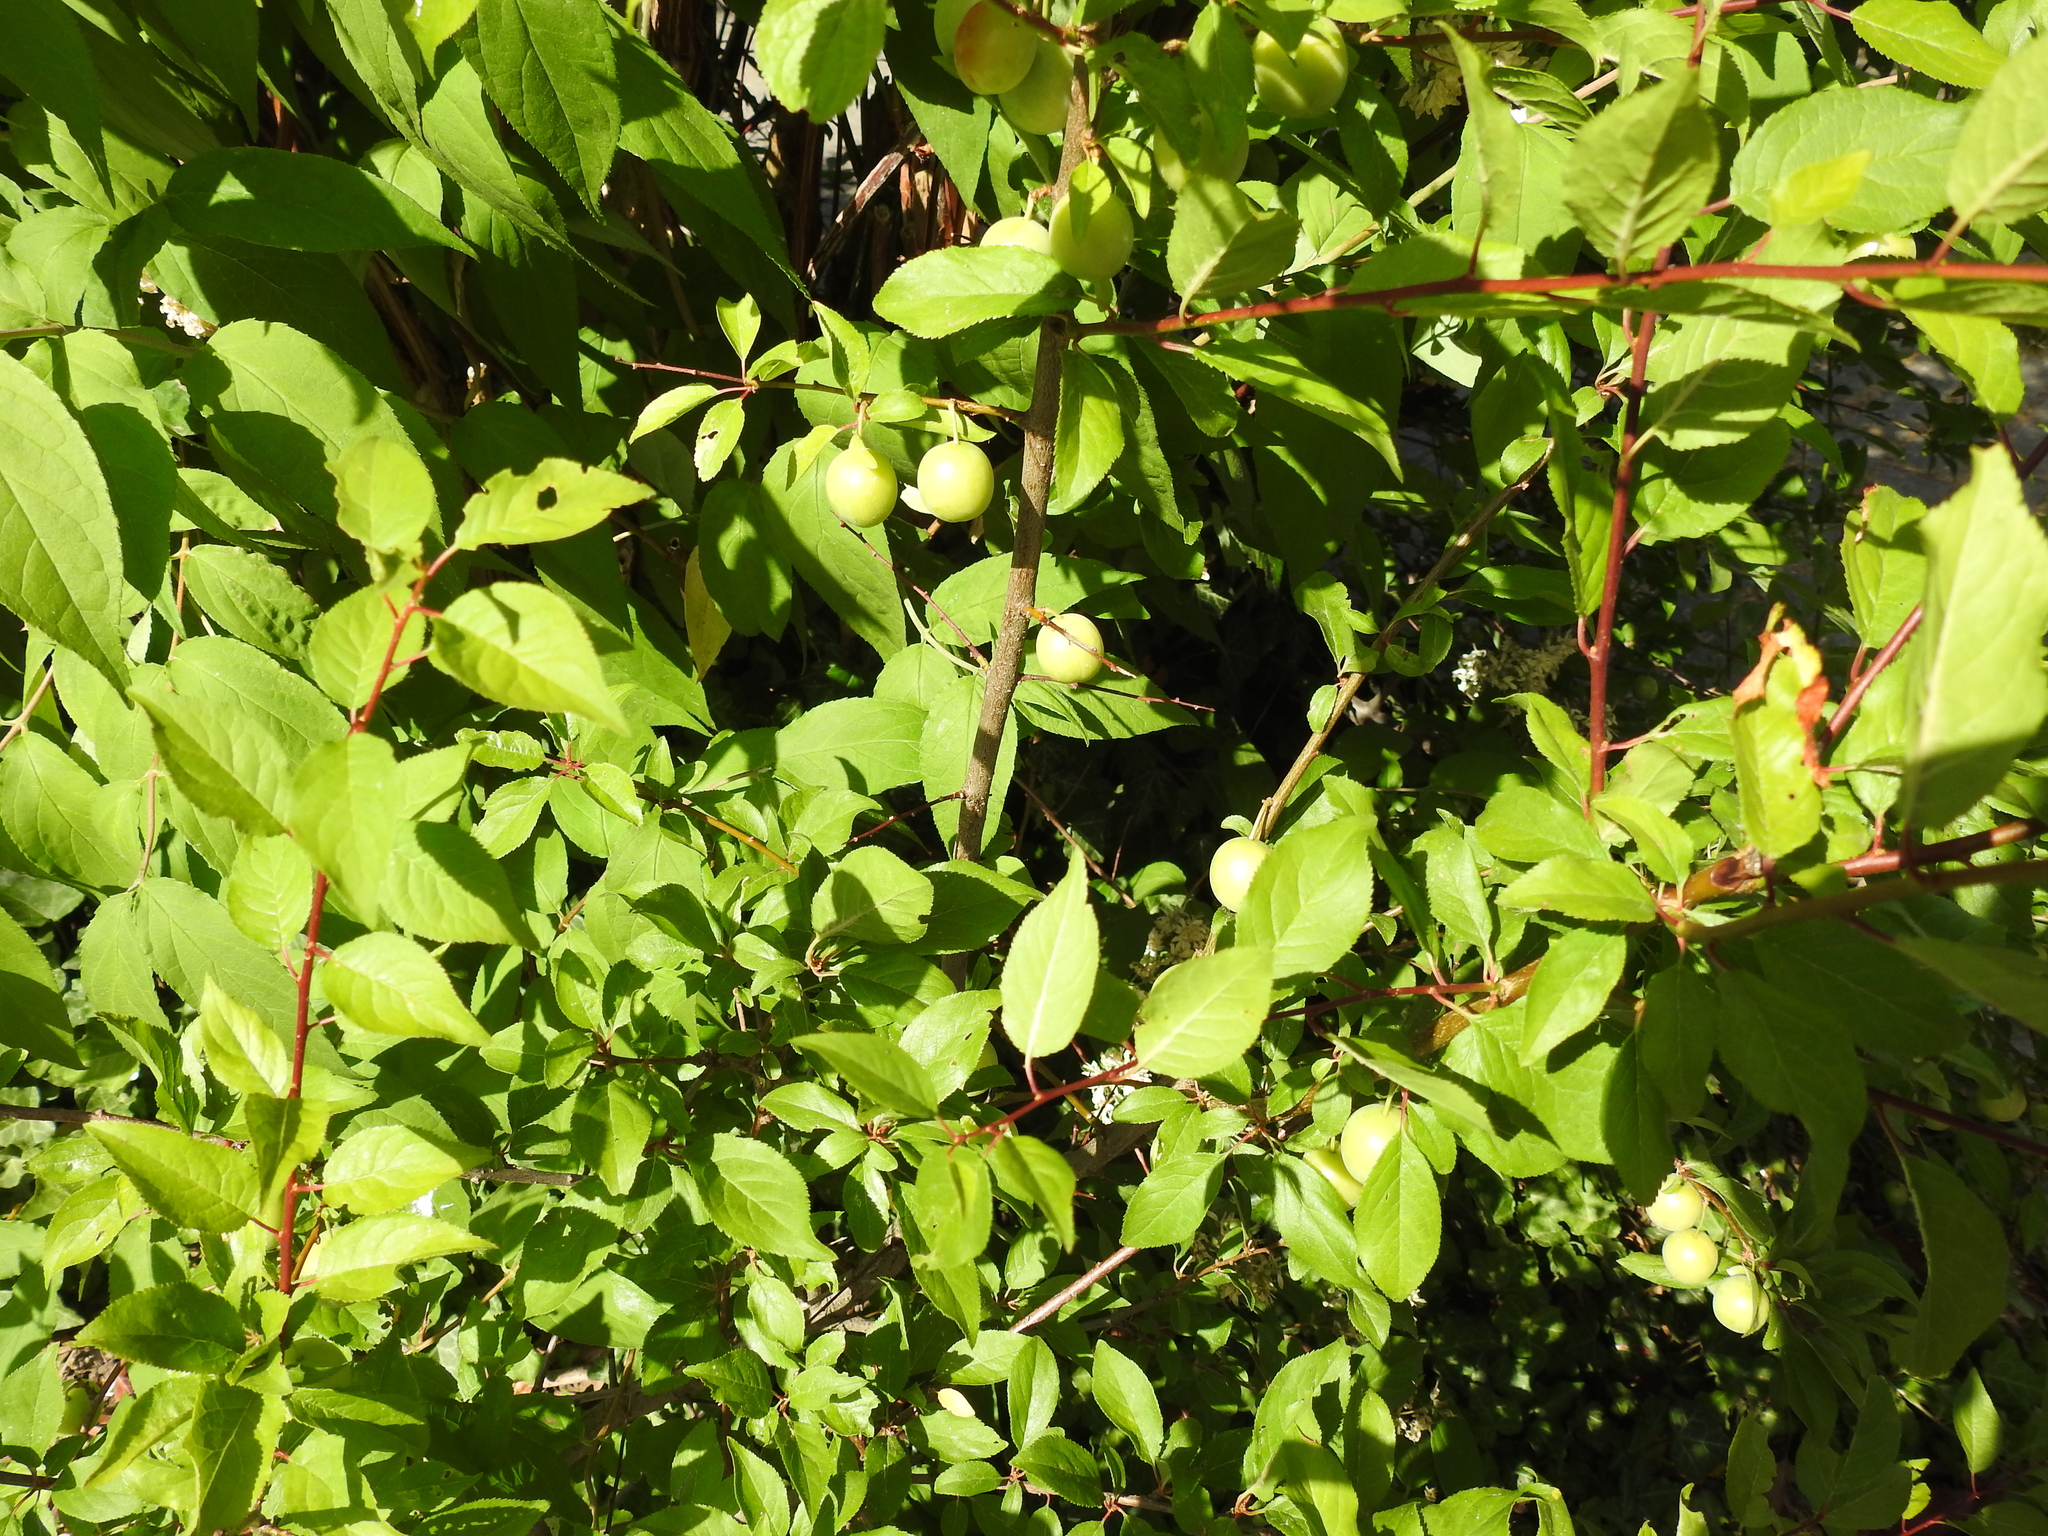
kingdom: Plantae
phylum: Tracheophyta
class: Magnoliopsida
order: Rosales
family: Rosaceae
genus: Prunus
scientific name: Prunus cerasifera
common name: Cherry plum
